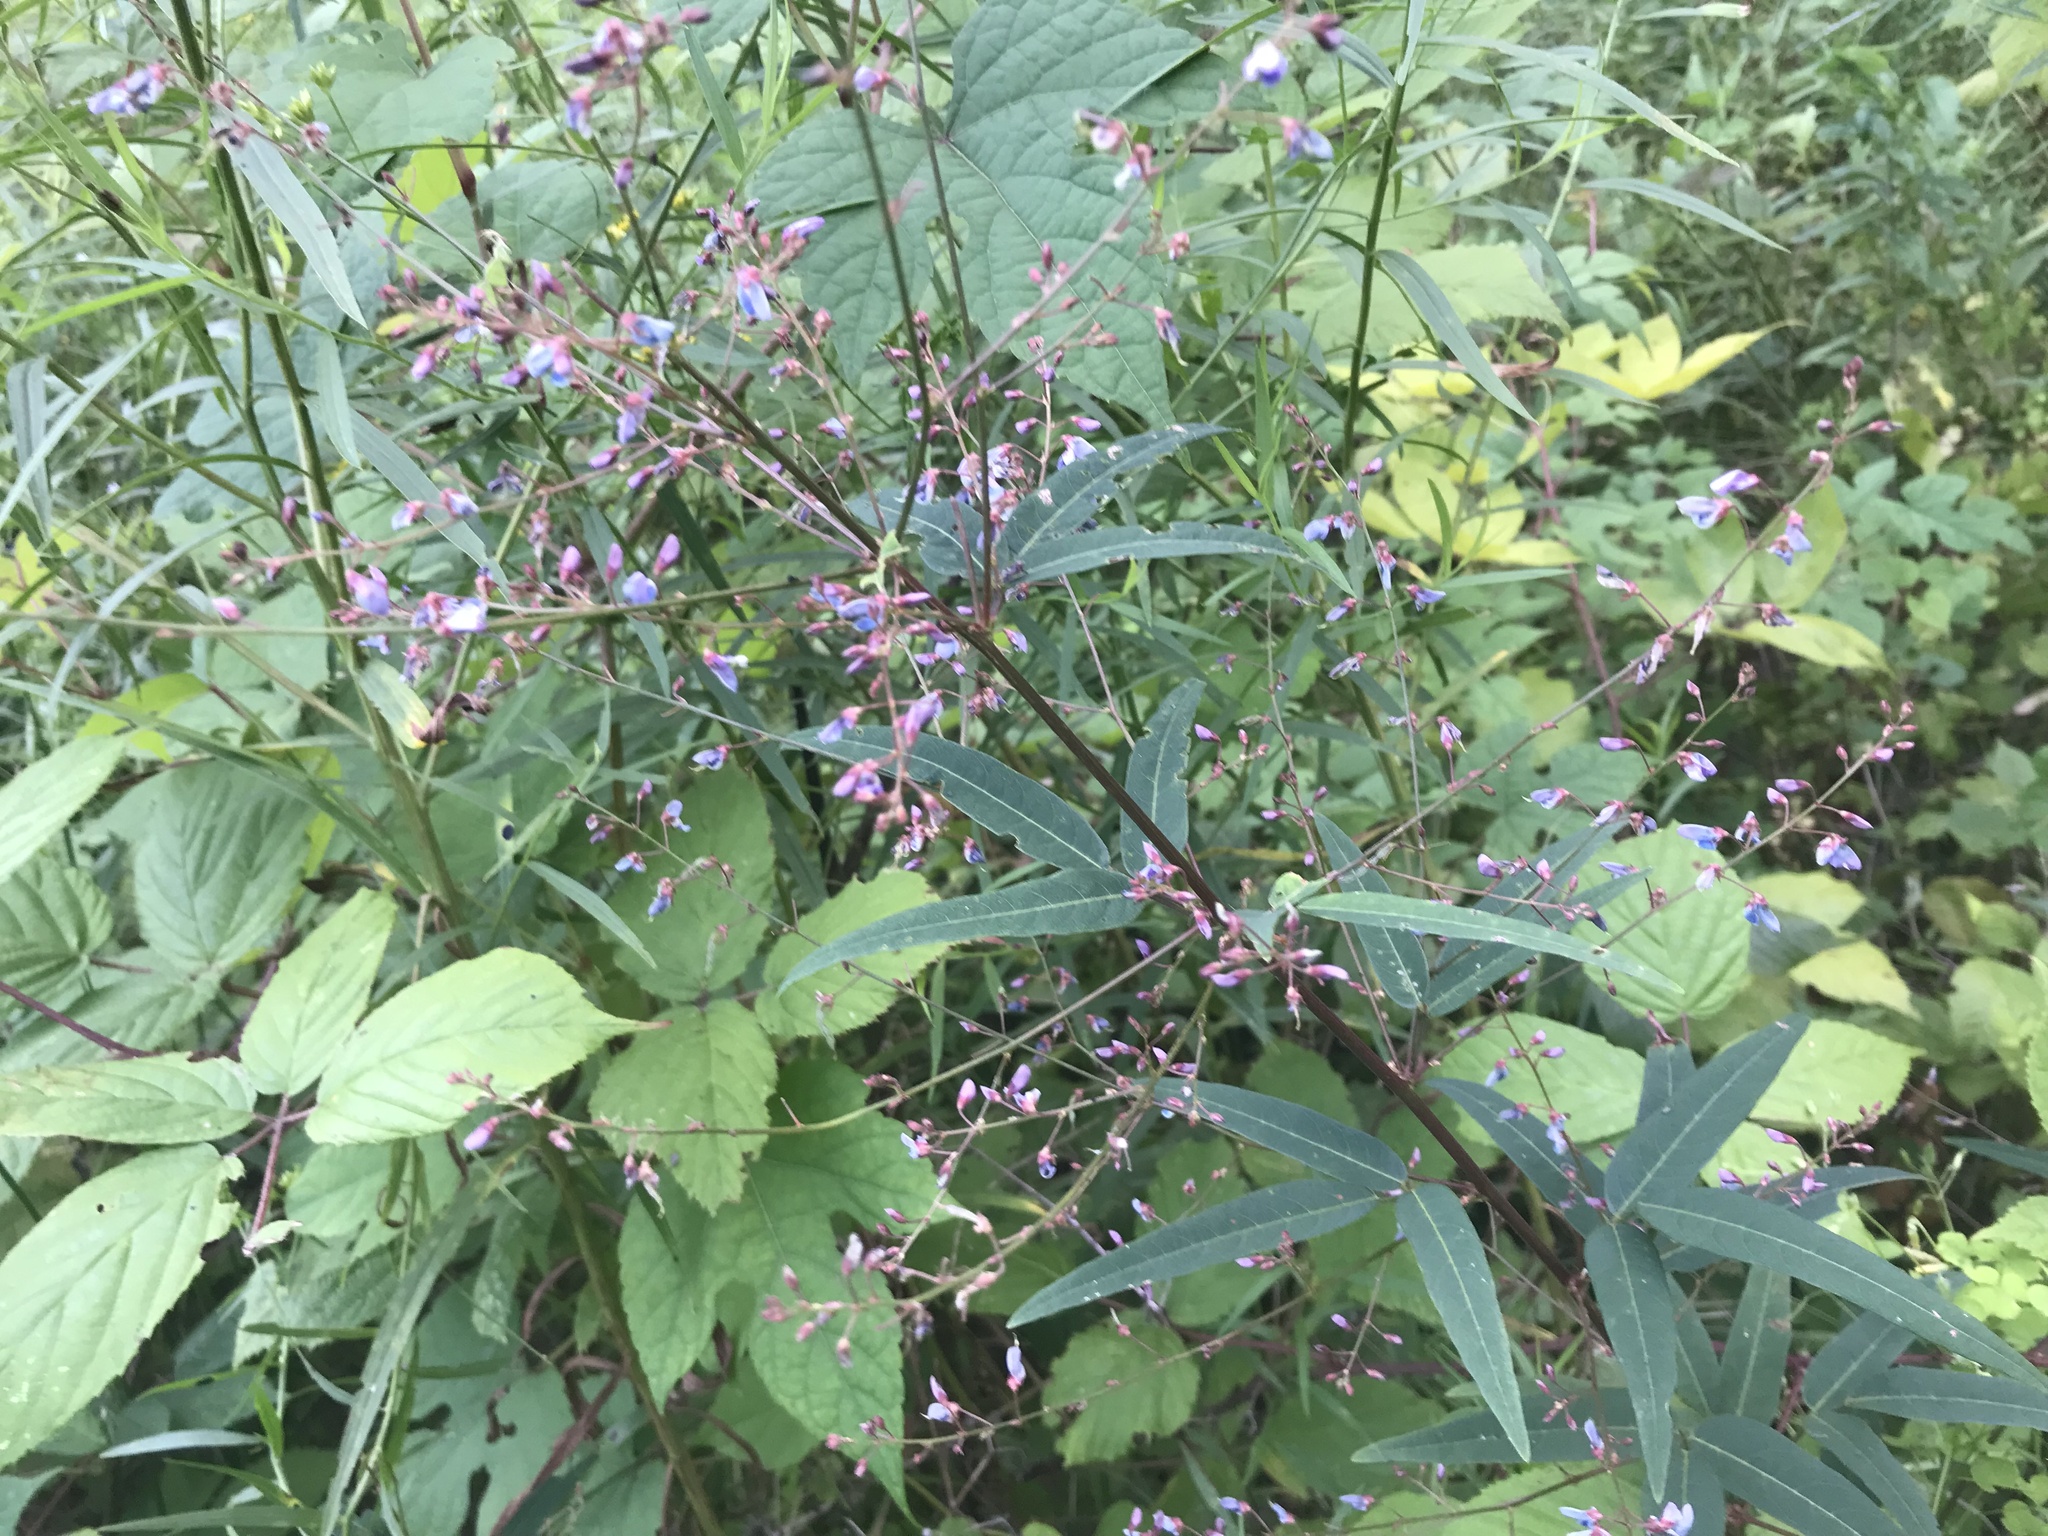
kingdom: Plantae
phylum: Tracheophyta
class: Magnoliopsida
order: Fabales
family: Fabaceae
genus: Desmodium
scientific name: Desmodium paniculatum
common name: Panicled tick-clover
